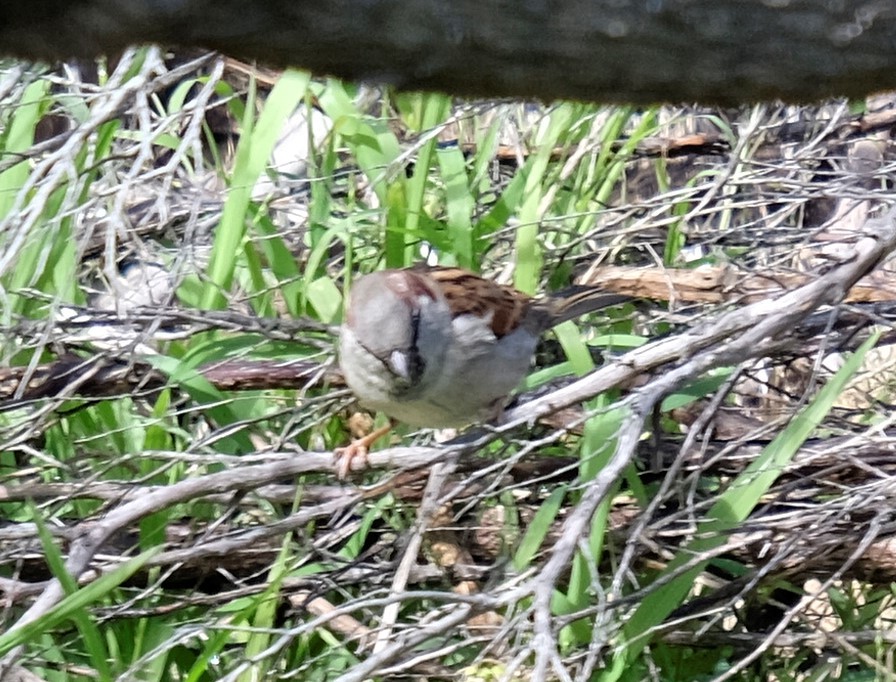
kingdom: Animalia
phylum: Chordata
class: Aves
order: Passeriformes
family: Passeridae
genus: Passer
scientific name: Passer domesticus
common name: House sparrow
